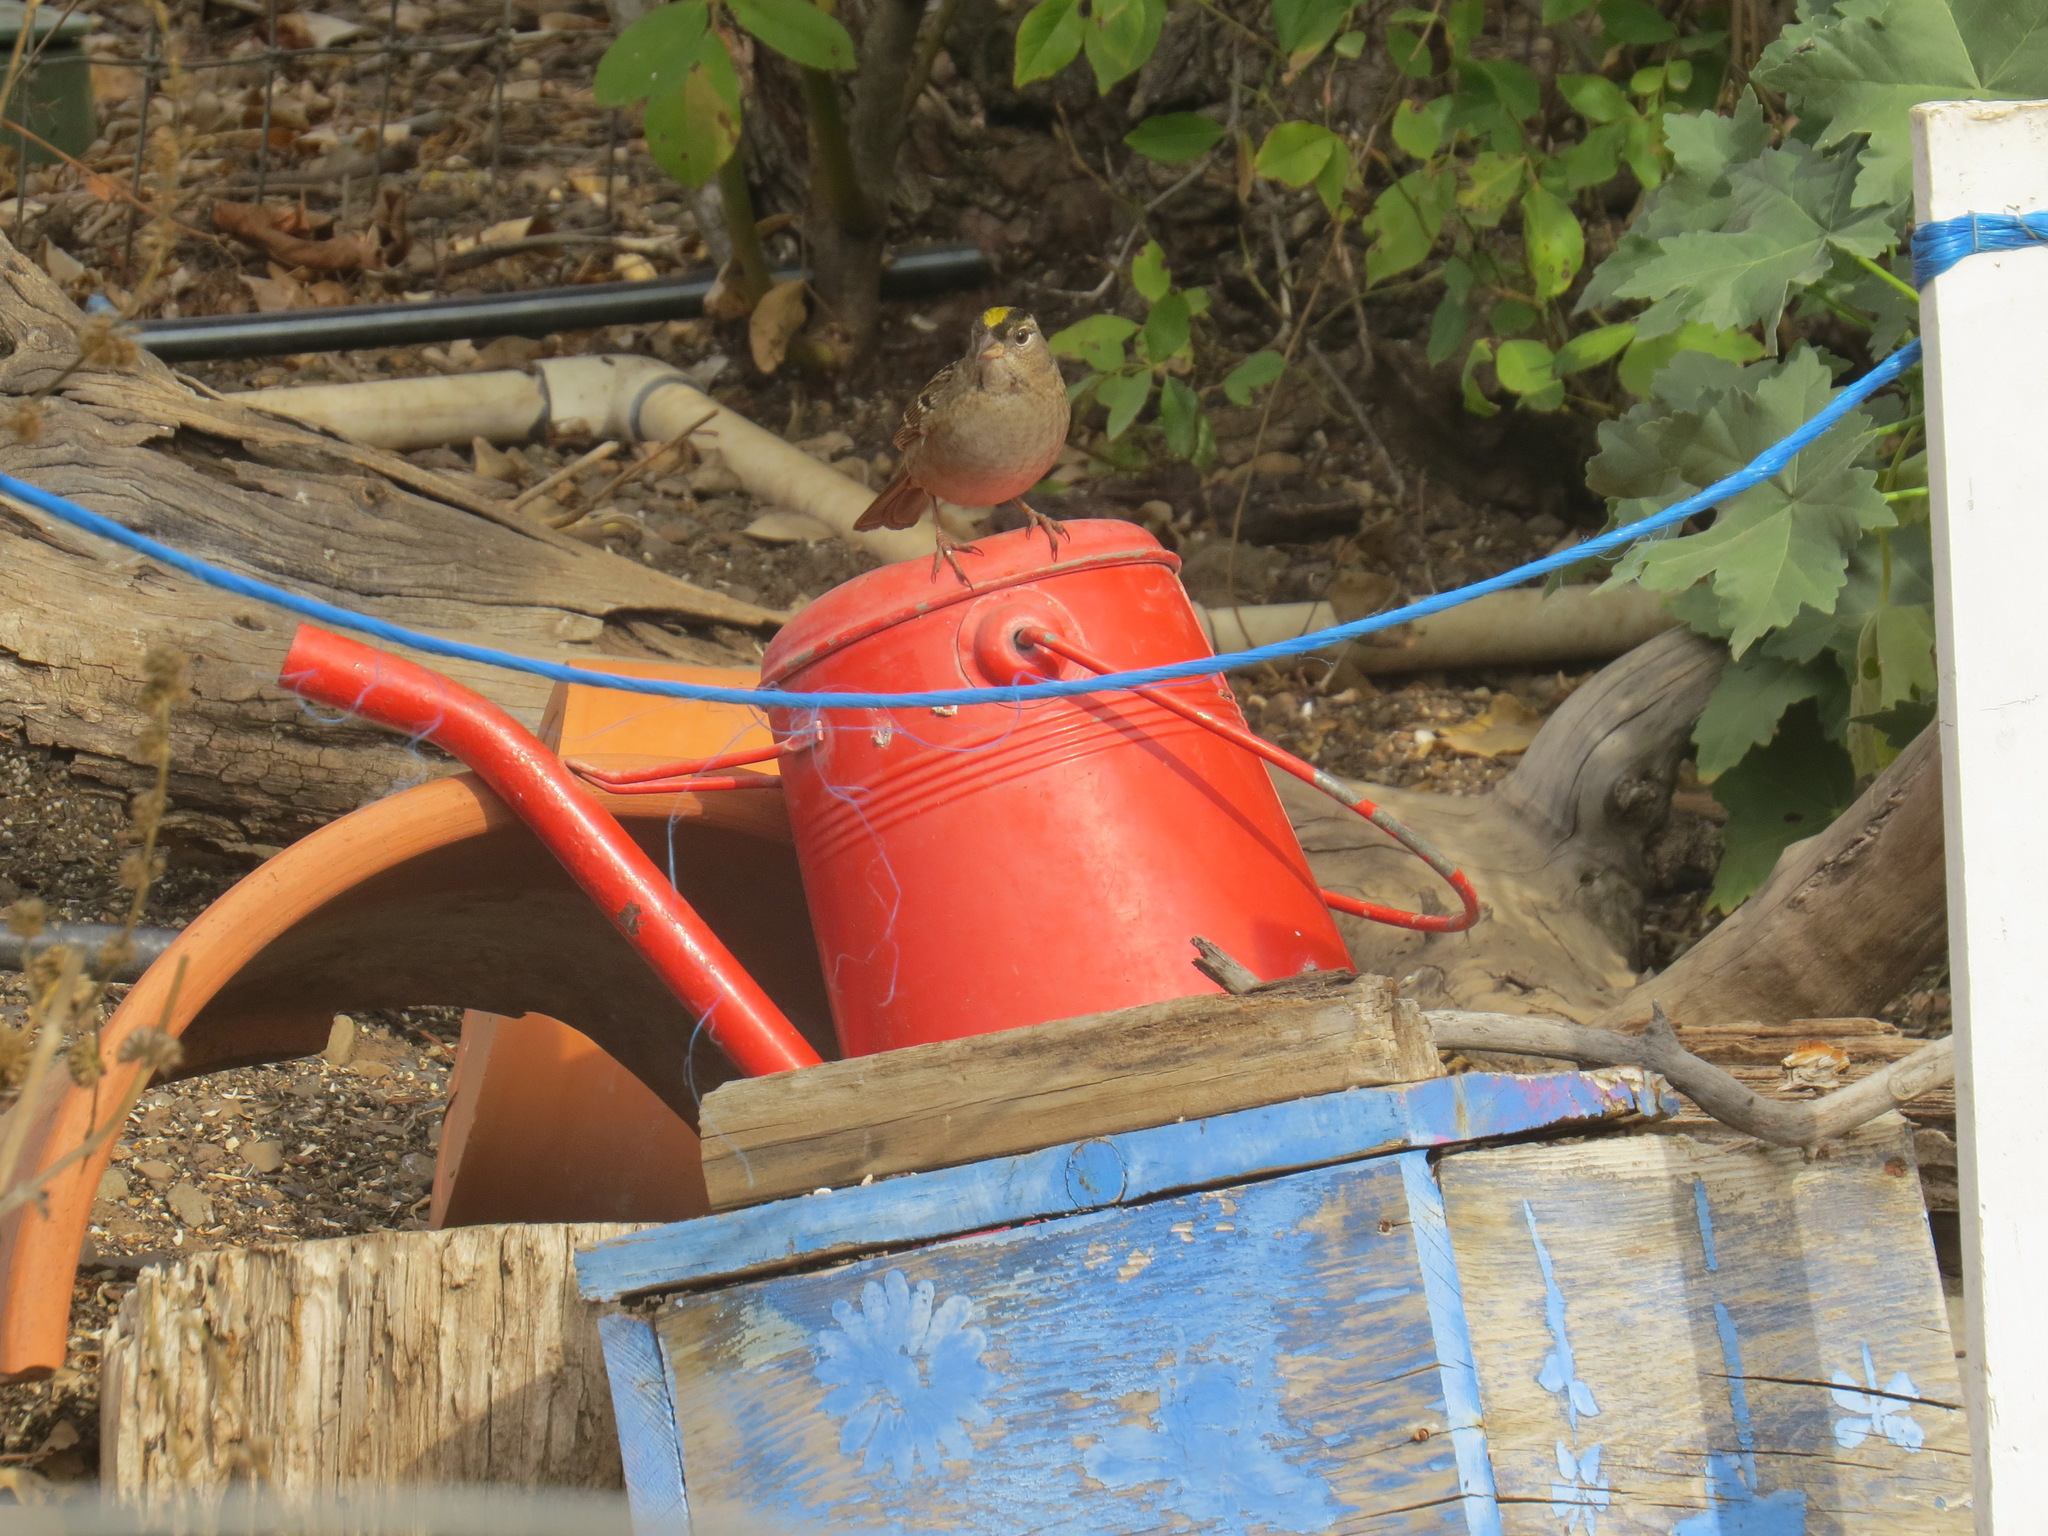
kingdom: Animalia
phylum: Chordata
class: Aves
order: Passeriformes
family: Passerellidae
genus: Zonotrichia
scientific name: Zonotrichia atricapilla
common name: Golden-crowned sparrow
